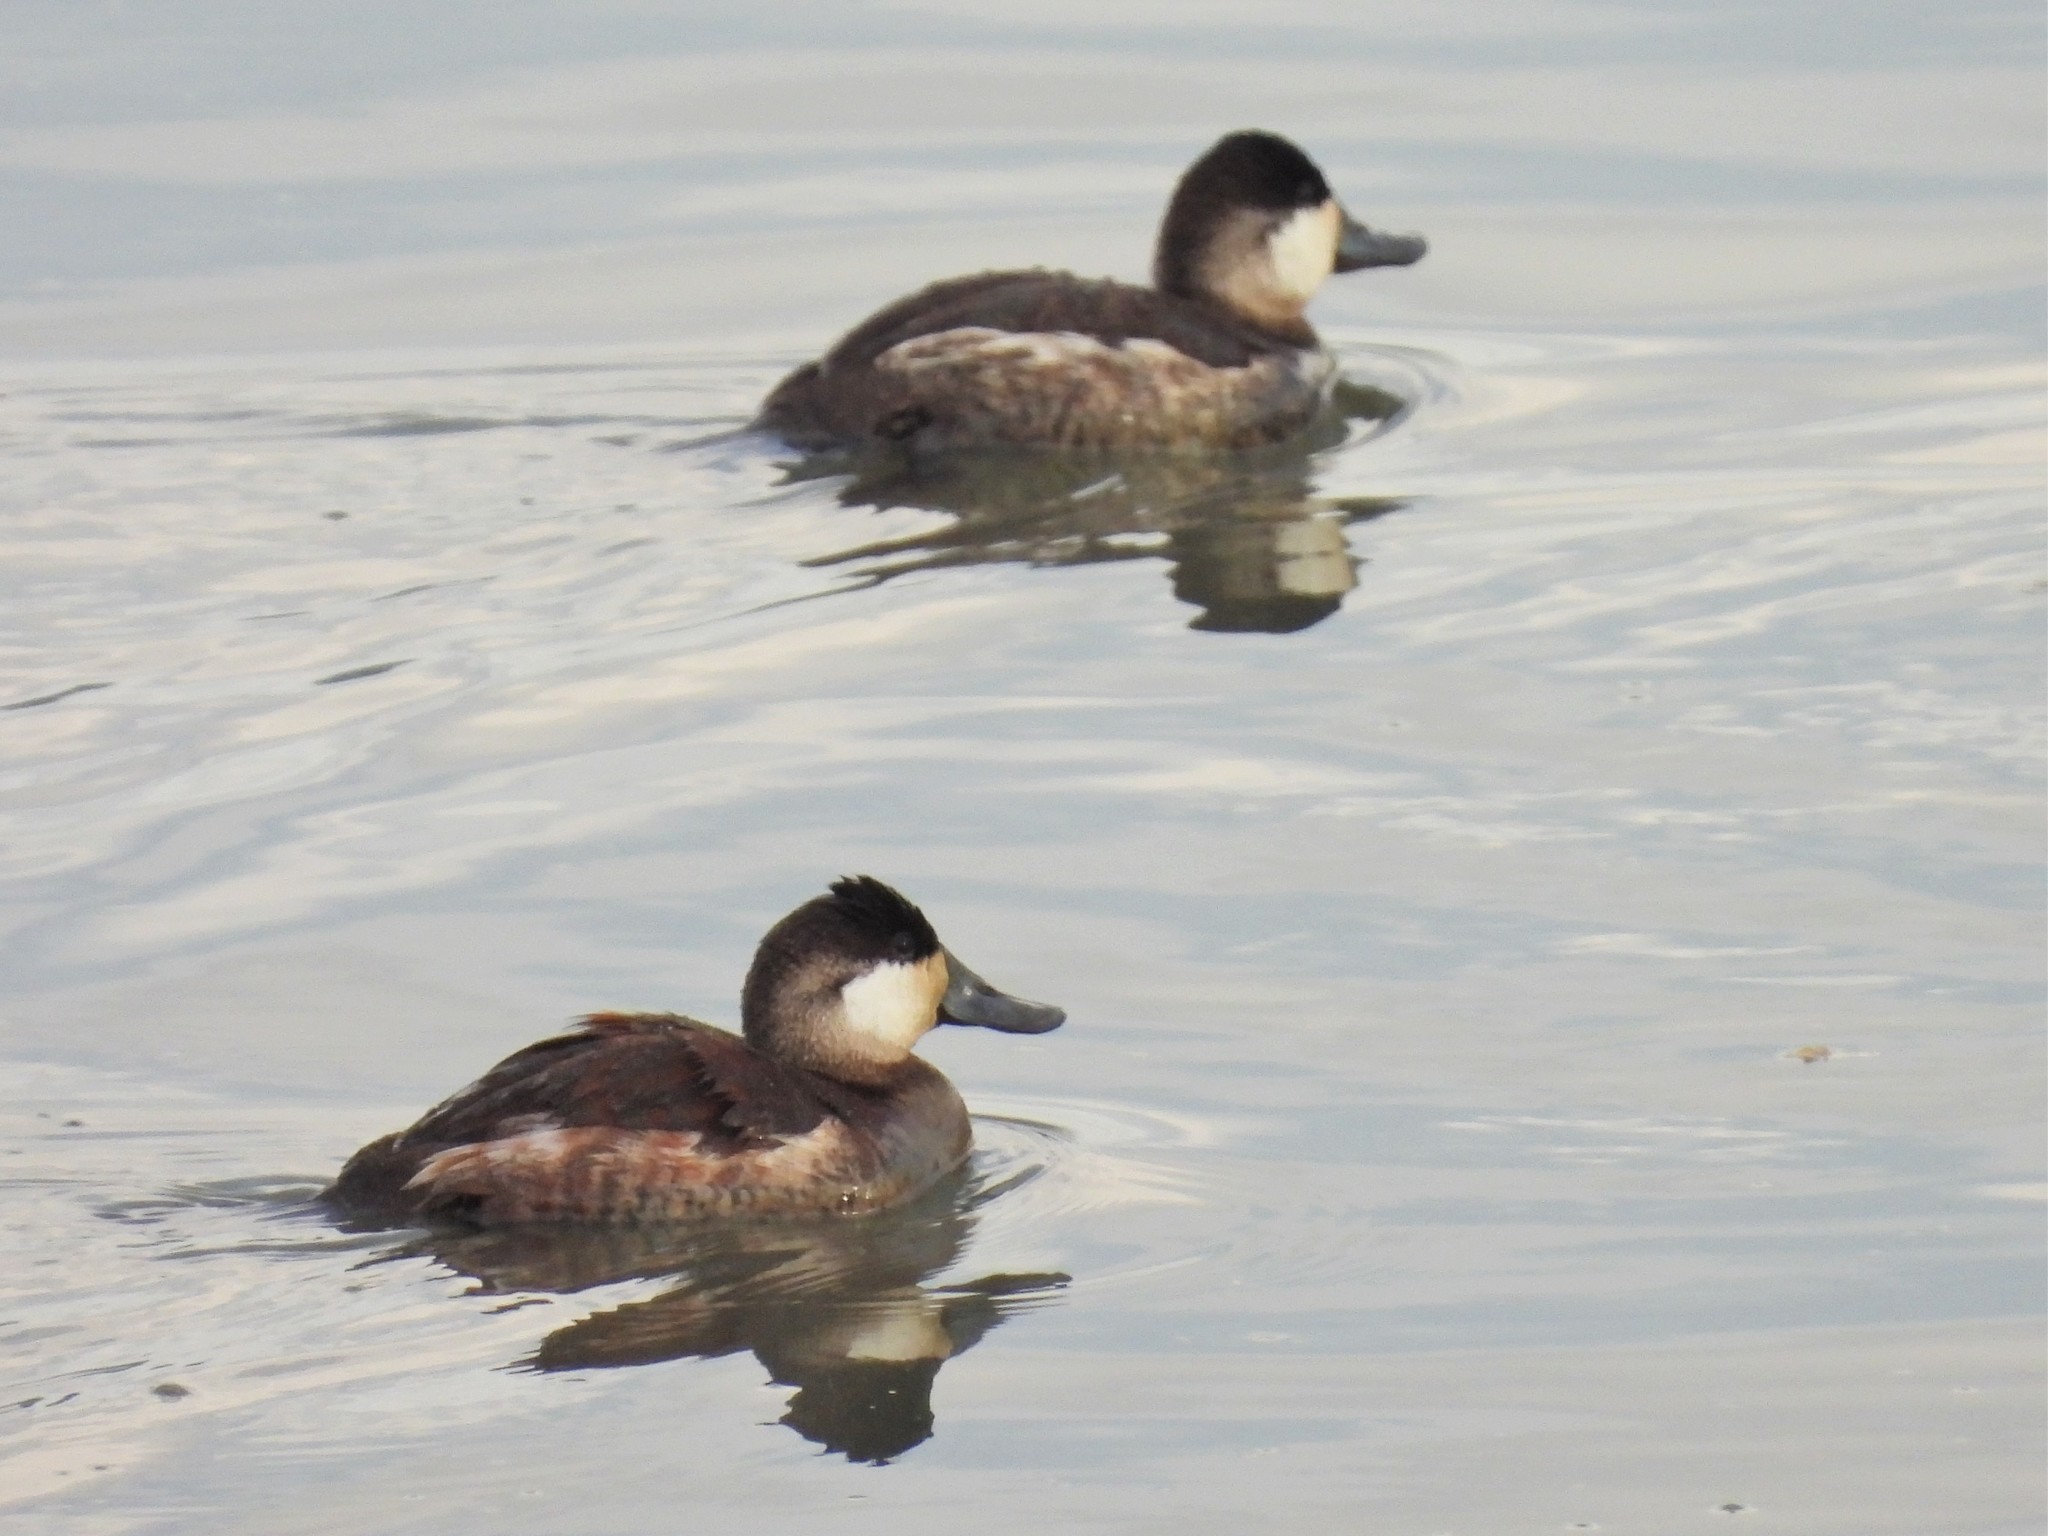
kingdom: Animalia
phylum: Chordata
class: Aves
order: Anseriformes
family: Anatidae
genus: Oxyura
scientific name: Oxyura jamaicensis
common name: Ruddy duck
